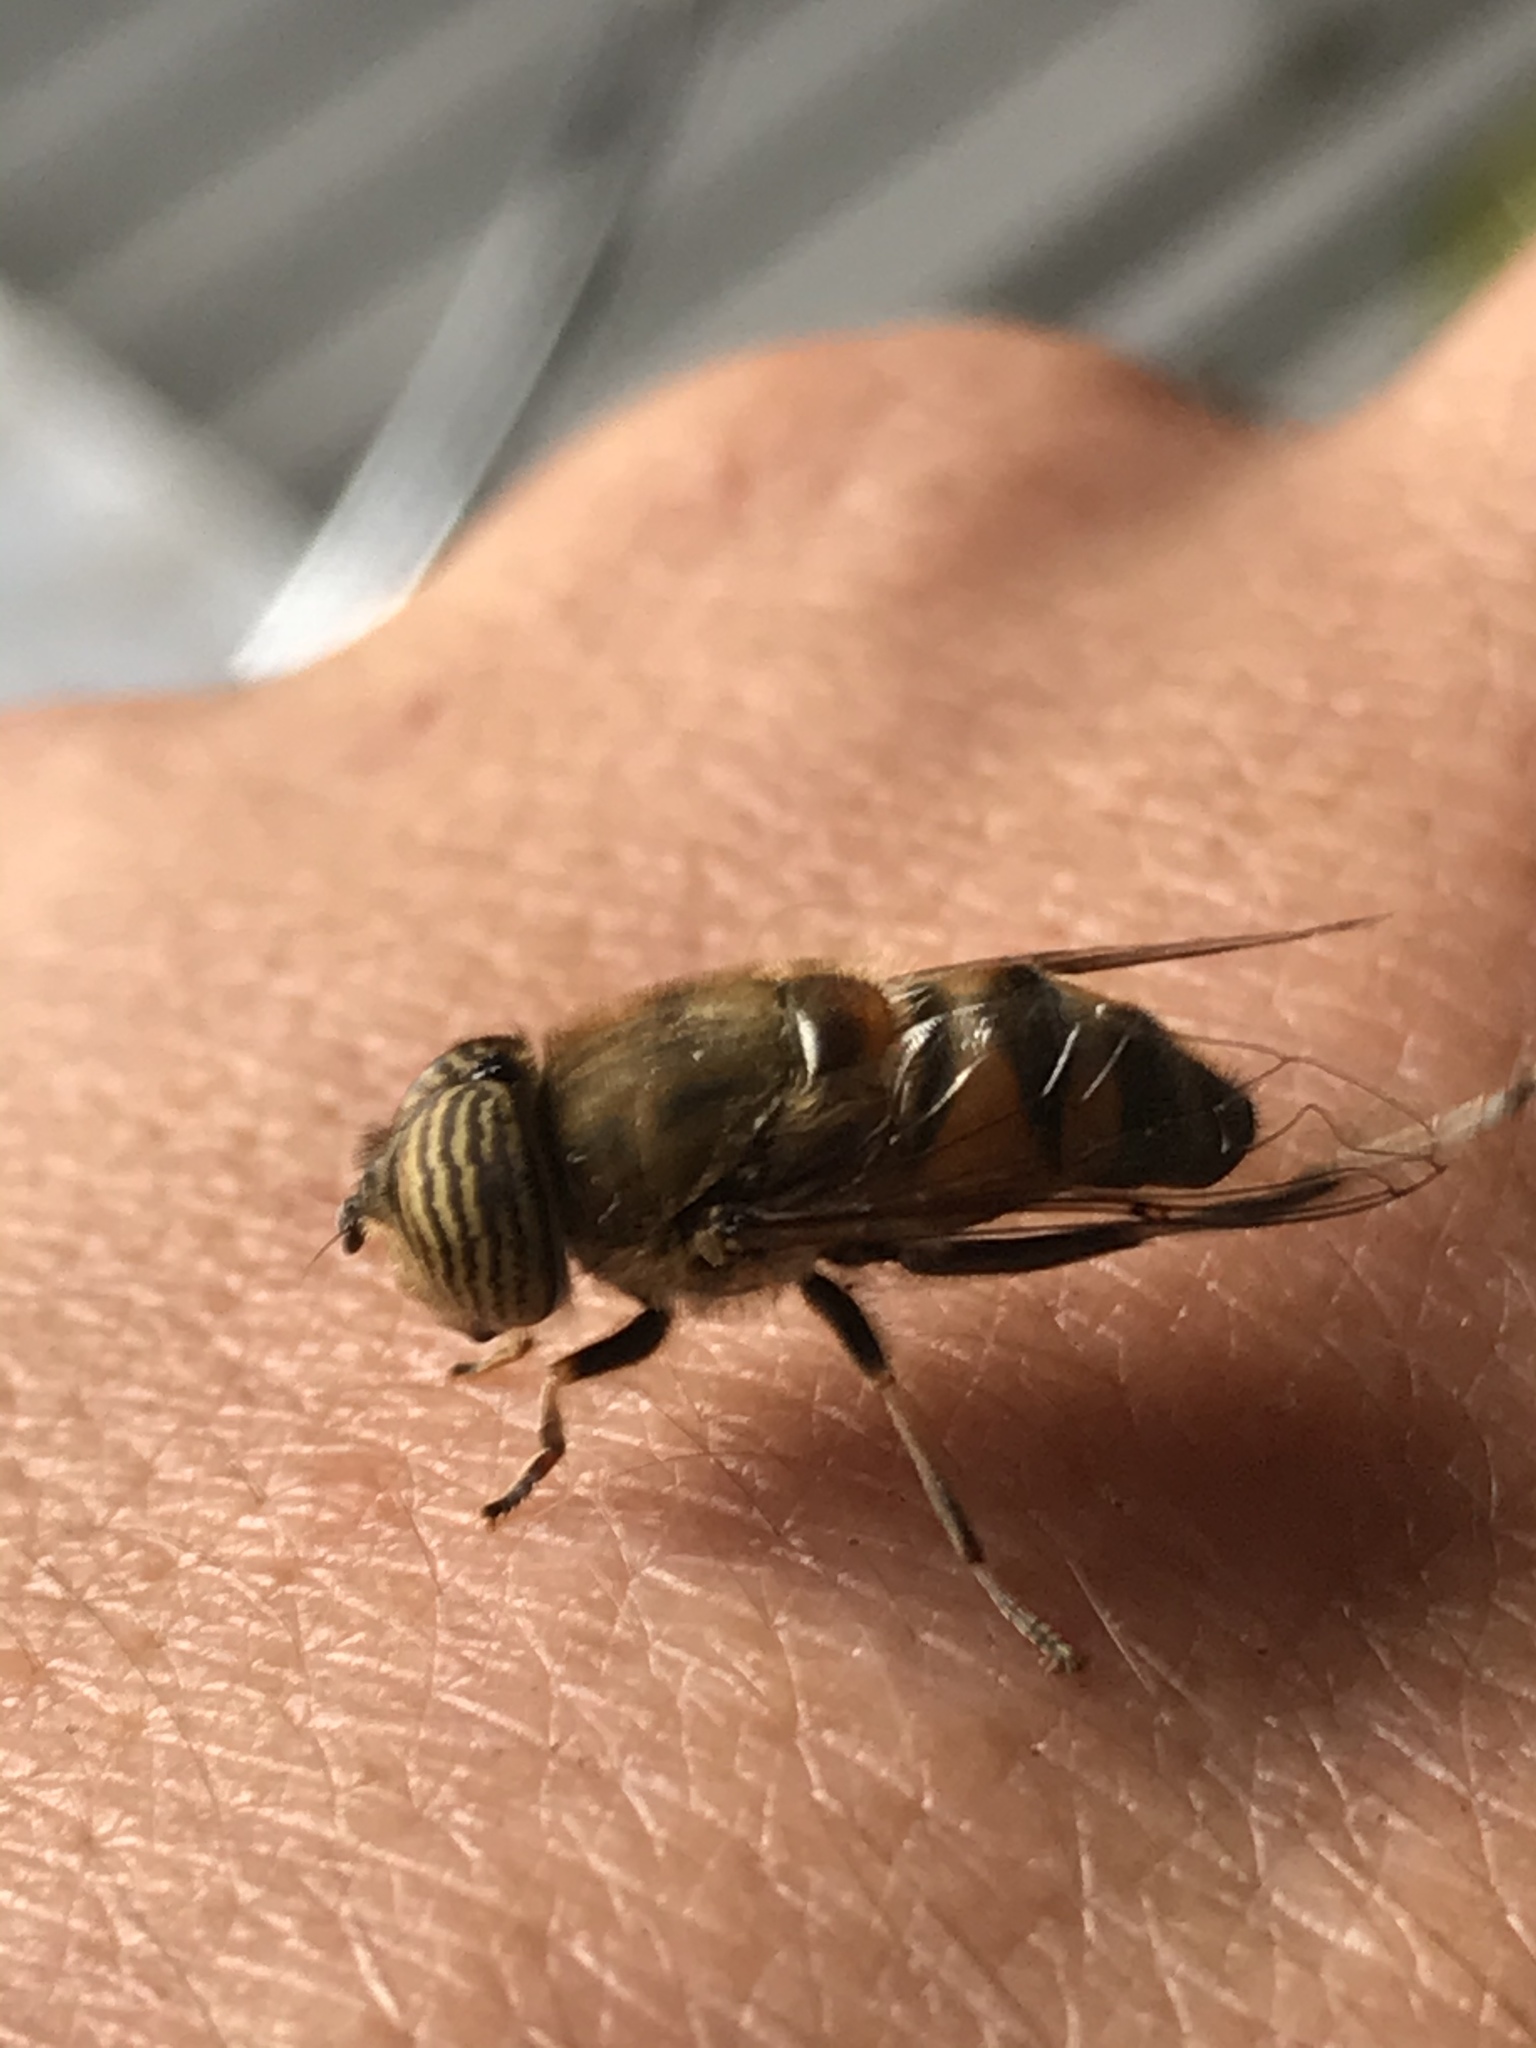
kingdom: Animalia
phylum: Arthropoda
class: Insecta
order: Diptera
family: Syrphidae
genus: Eristalinus
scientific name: Eristalinus taeniops
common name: Syrphid fly
